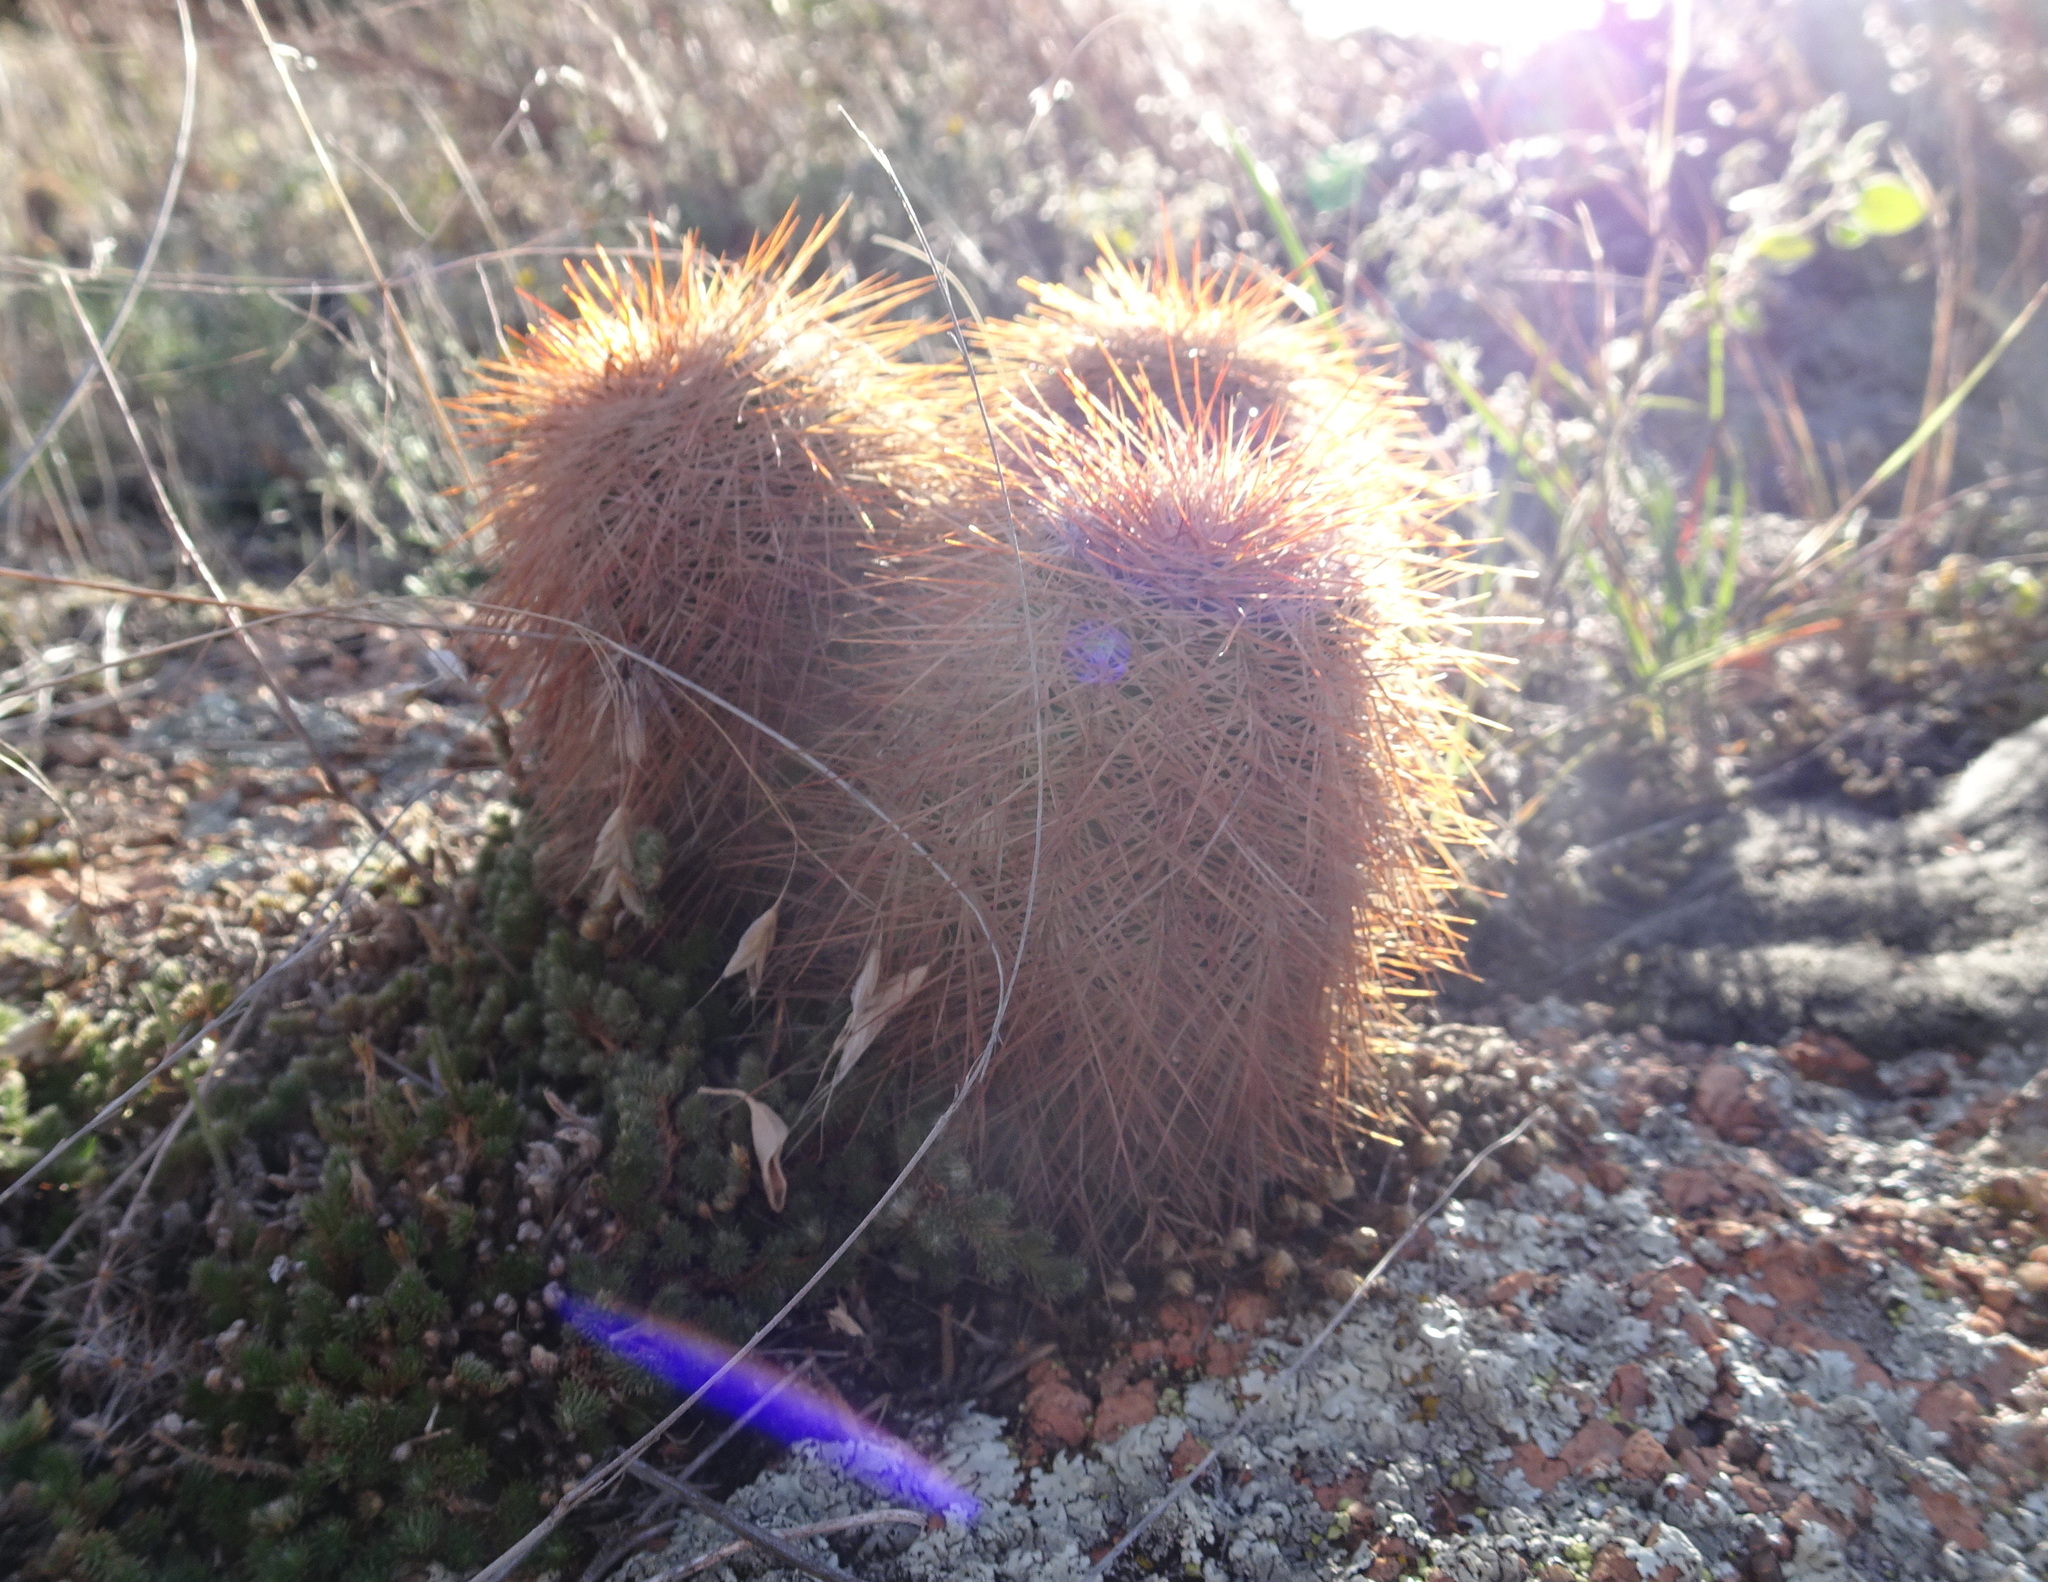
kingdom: Plantae
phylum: Tracheophyta
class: Magnoliopsida
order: Caryophyllales
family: Cactaceae
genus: Echinocereus
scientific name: Echinocereus reichenbachii
